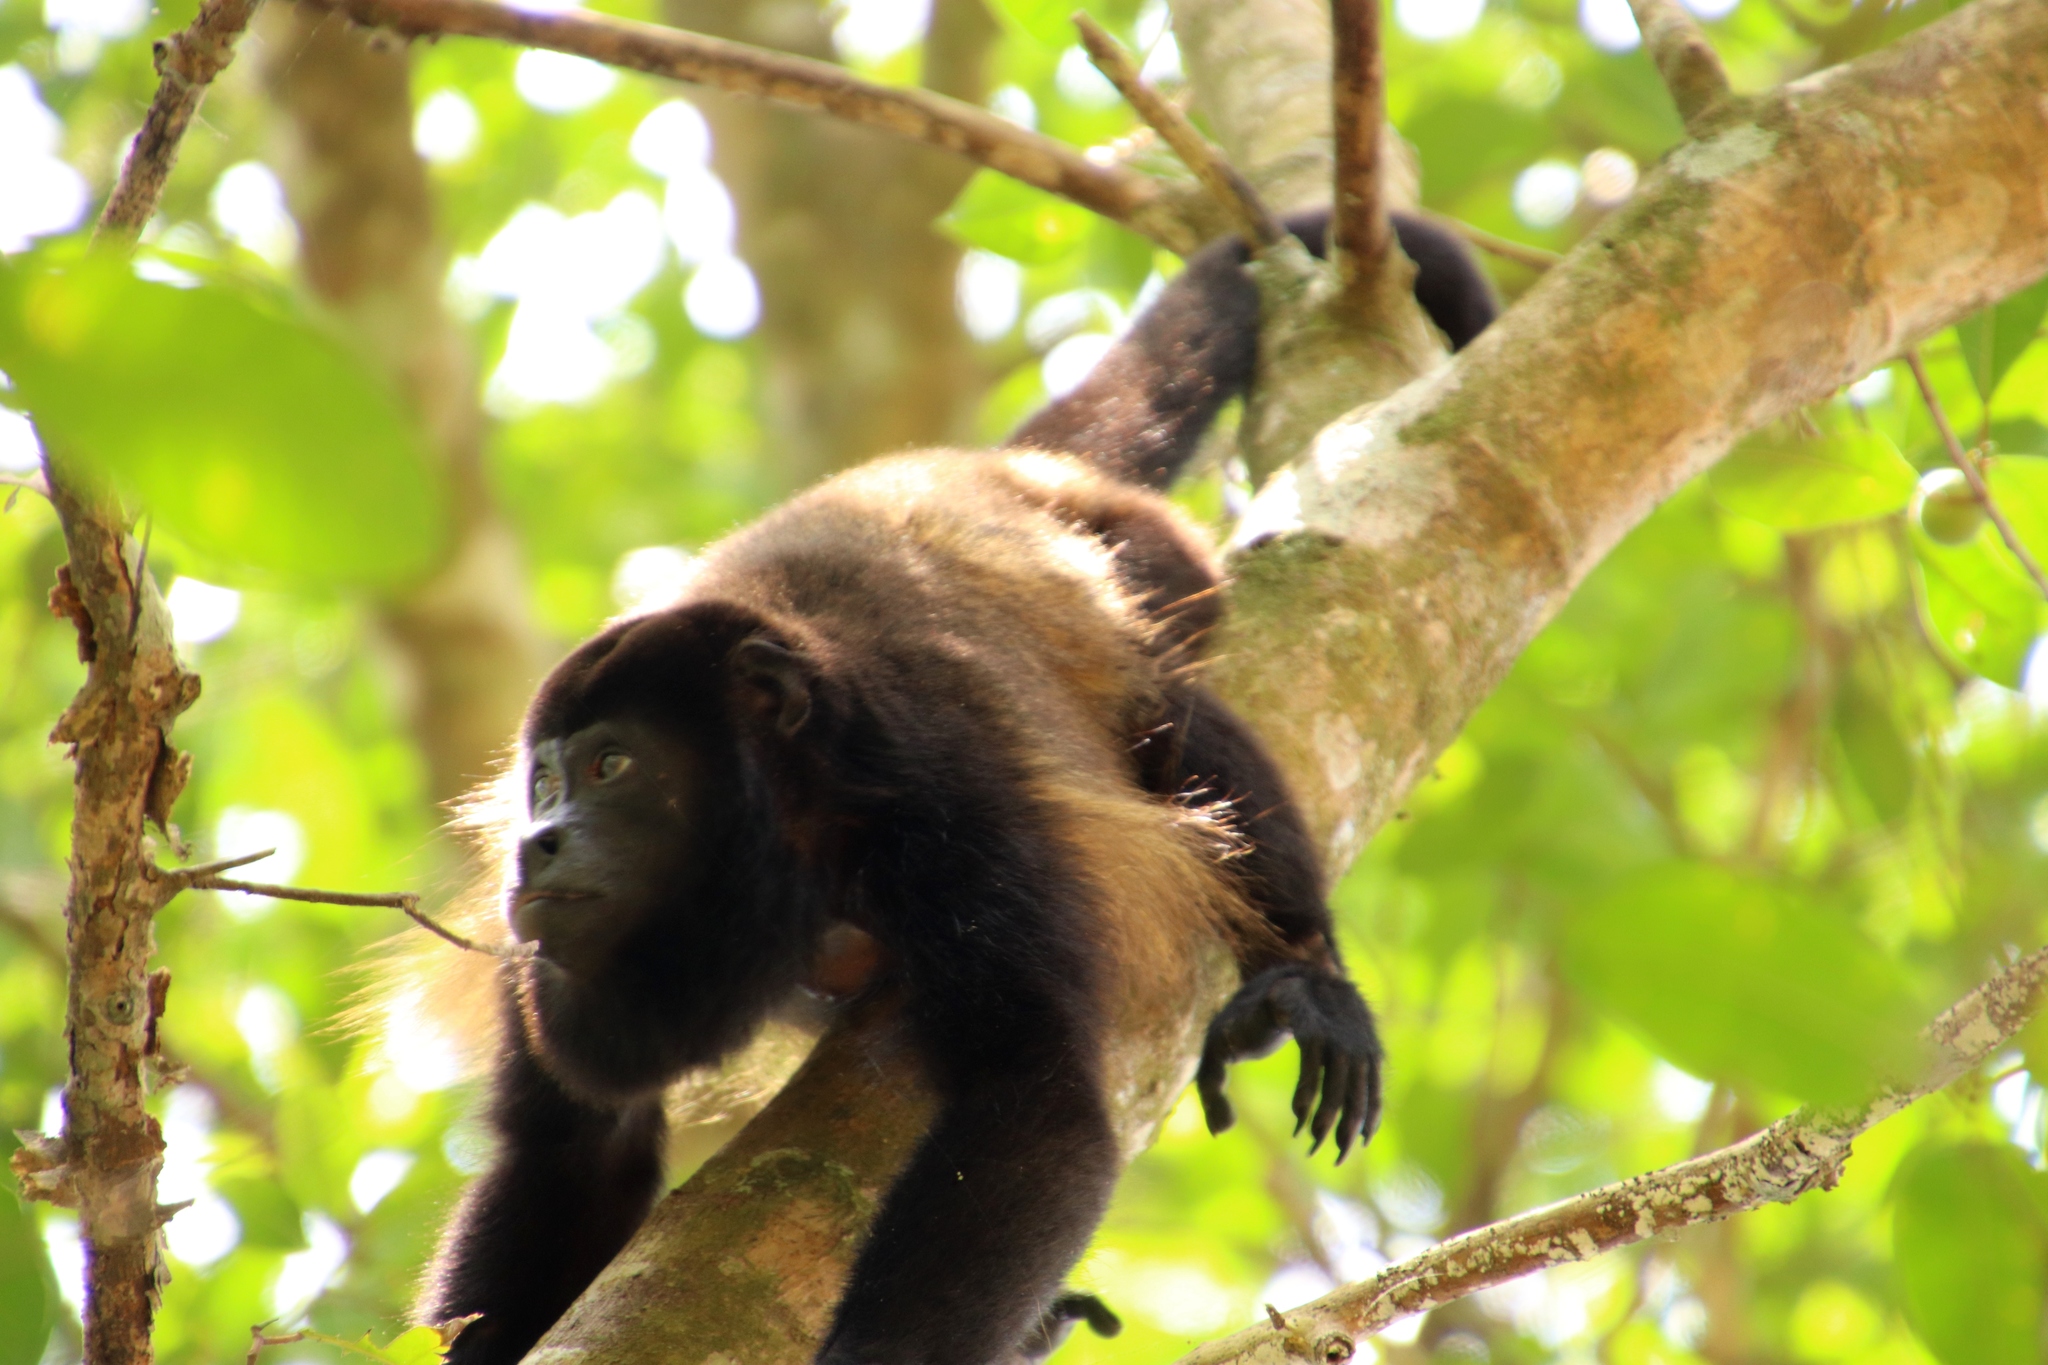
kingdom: Animalia
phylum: Chordata
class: Mammalia
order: Primates
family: Atelidae
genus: Alouatta
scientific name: Alouatta palliata
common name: Mantled howler
